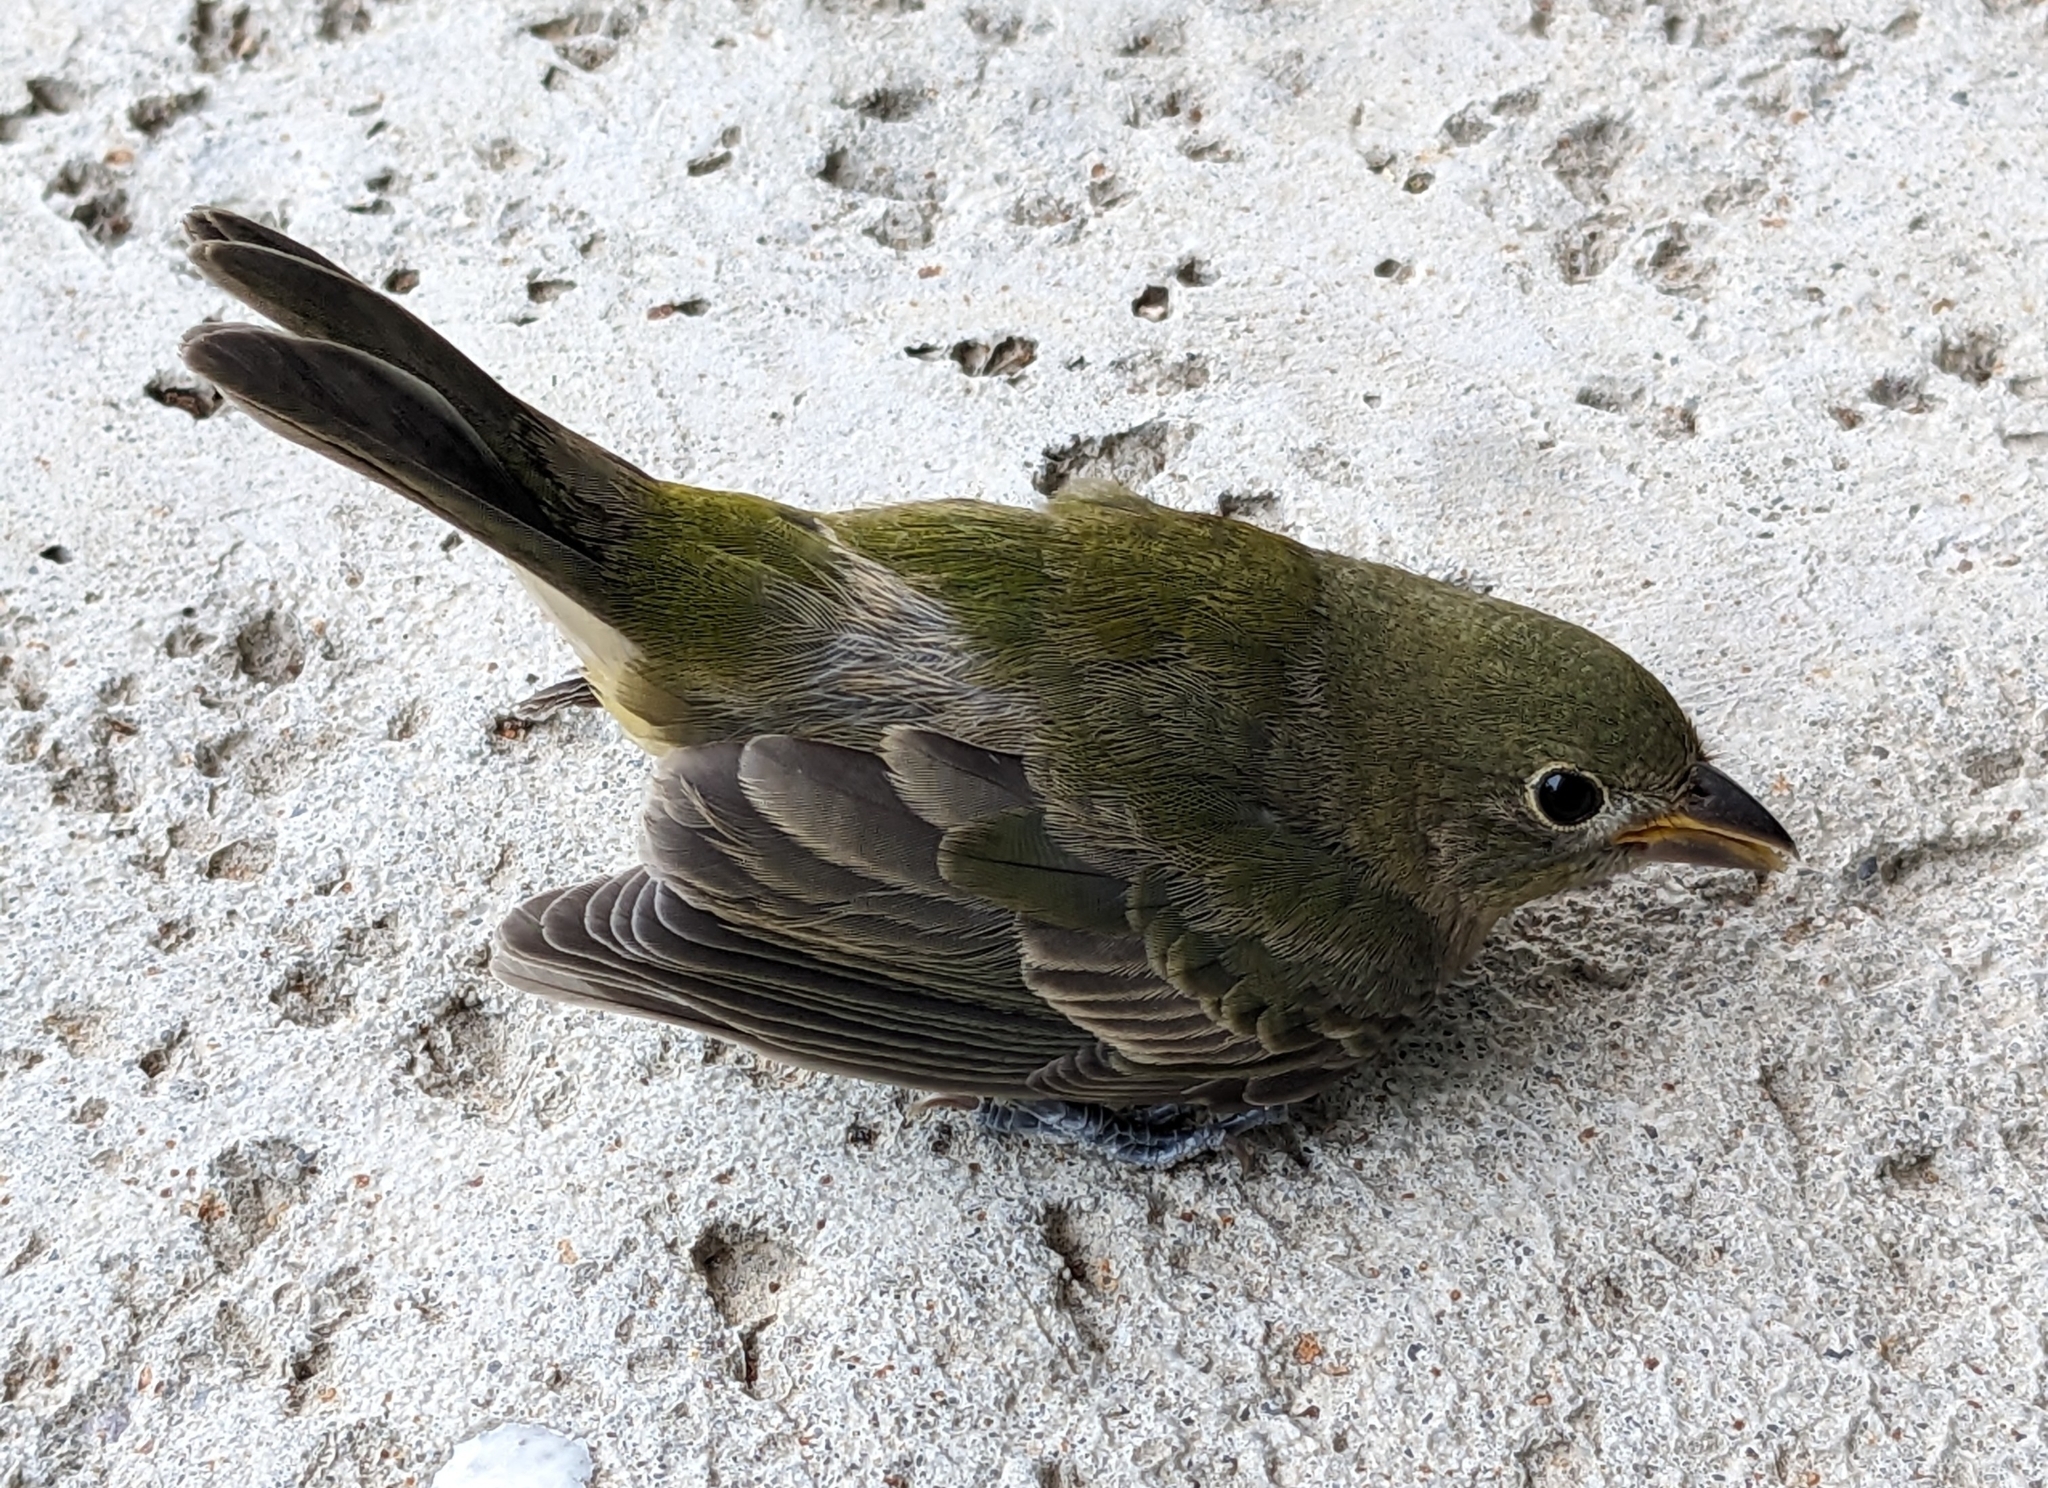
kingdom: Animalia
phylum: Chordata
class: Aves
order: Passeriformes
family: Cardinalidae
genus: Passerina
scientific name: Passerina ciris
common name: Painted bunting
